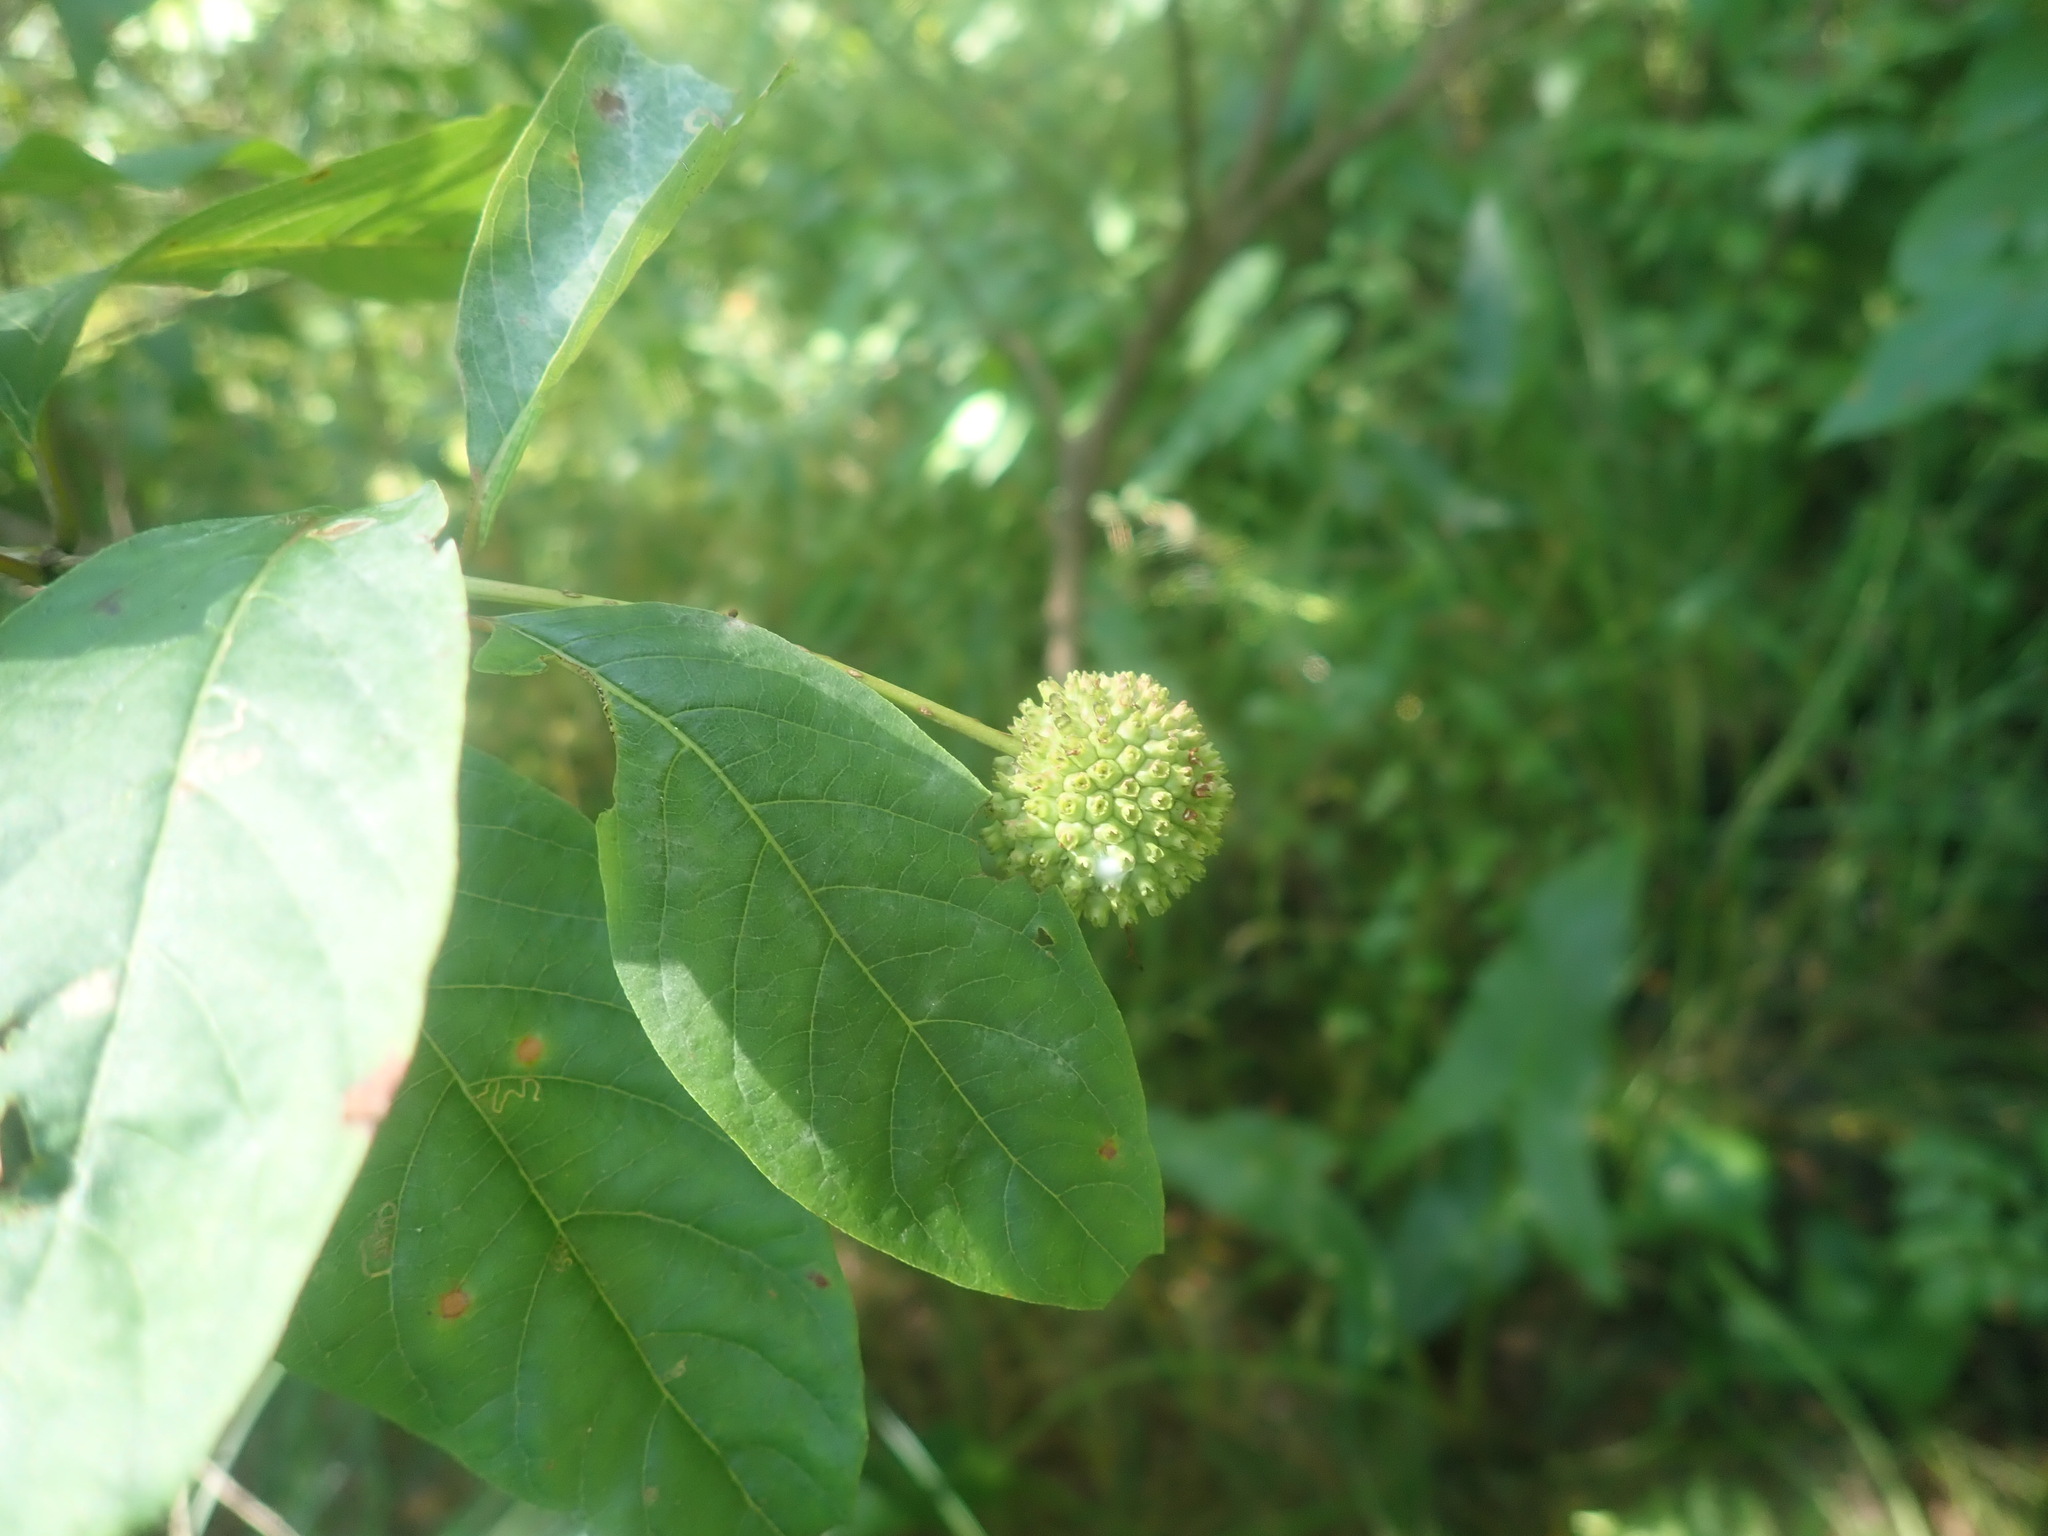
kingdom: Plantae
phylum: Tracheophyta
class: Magnoliopsida
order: Gentianales
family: Rubiaceae
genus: Cephalanthus
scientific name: Cephalanthus occidentalis
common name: Button-willow
